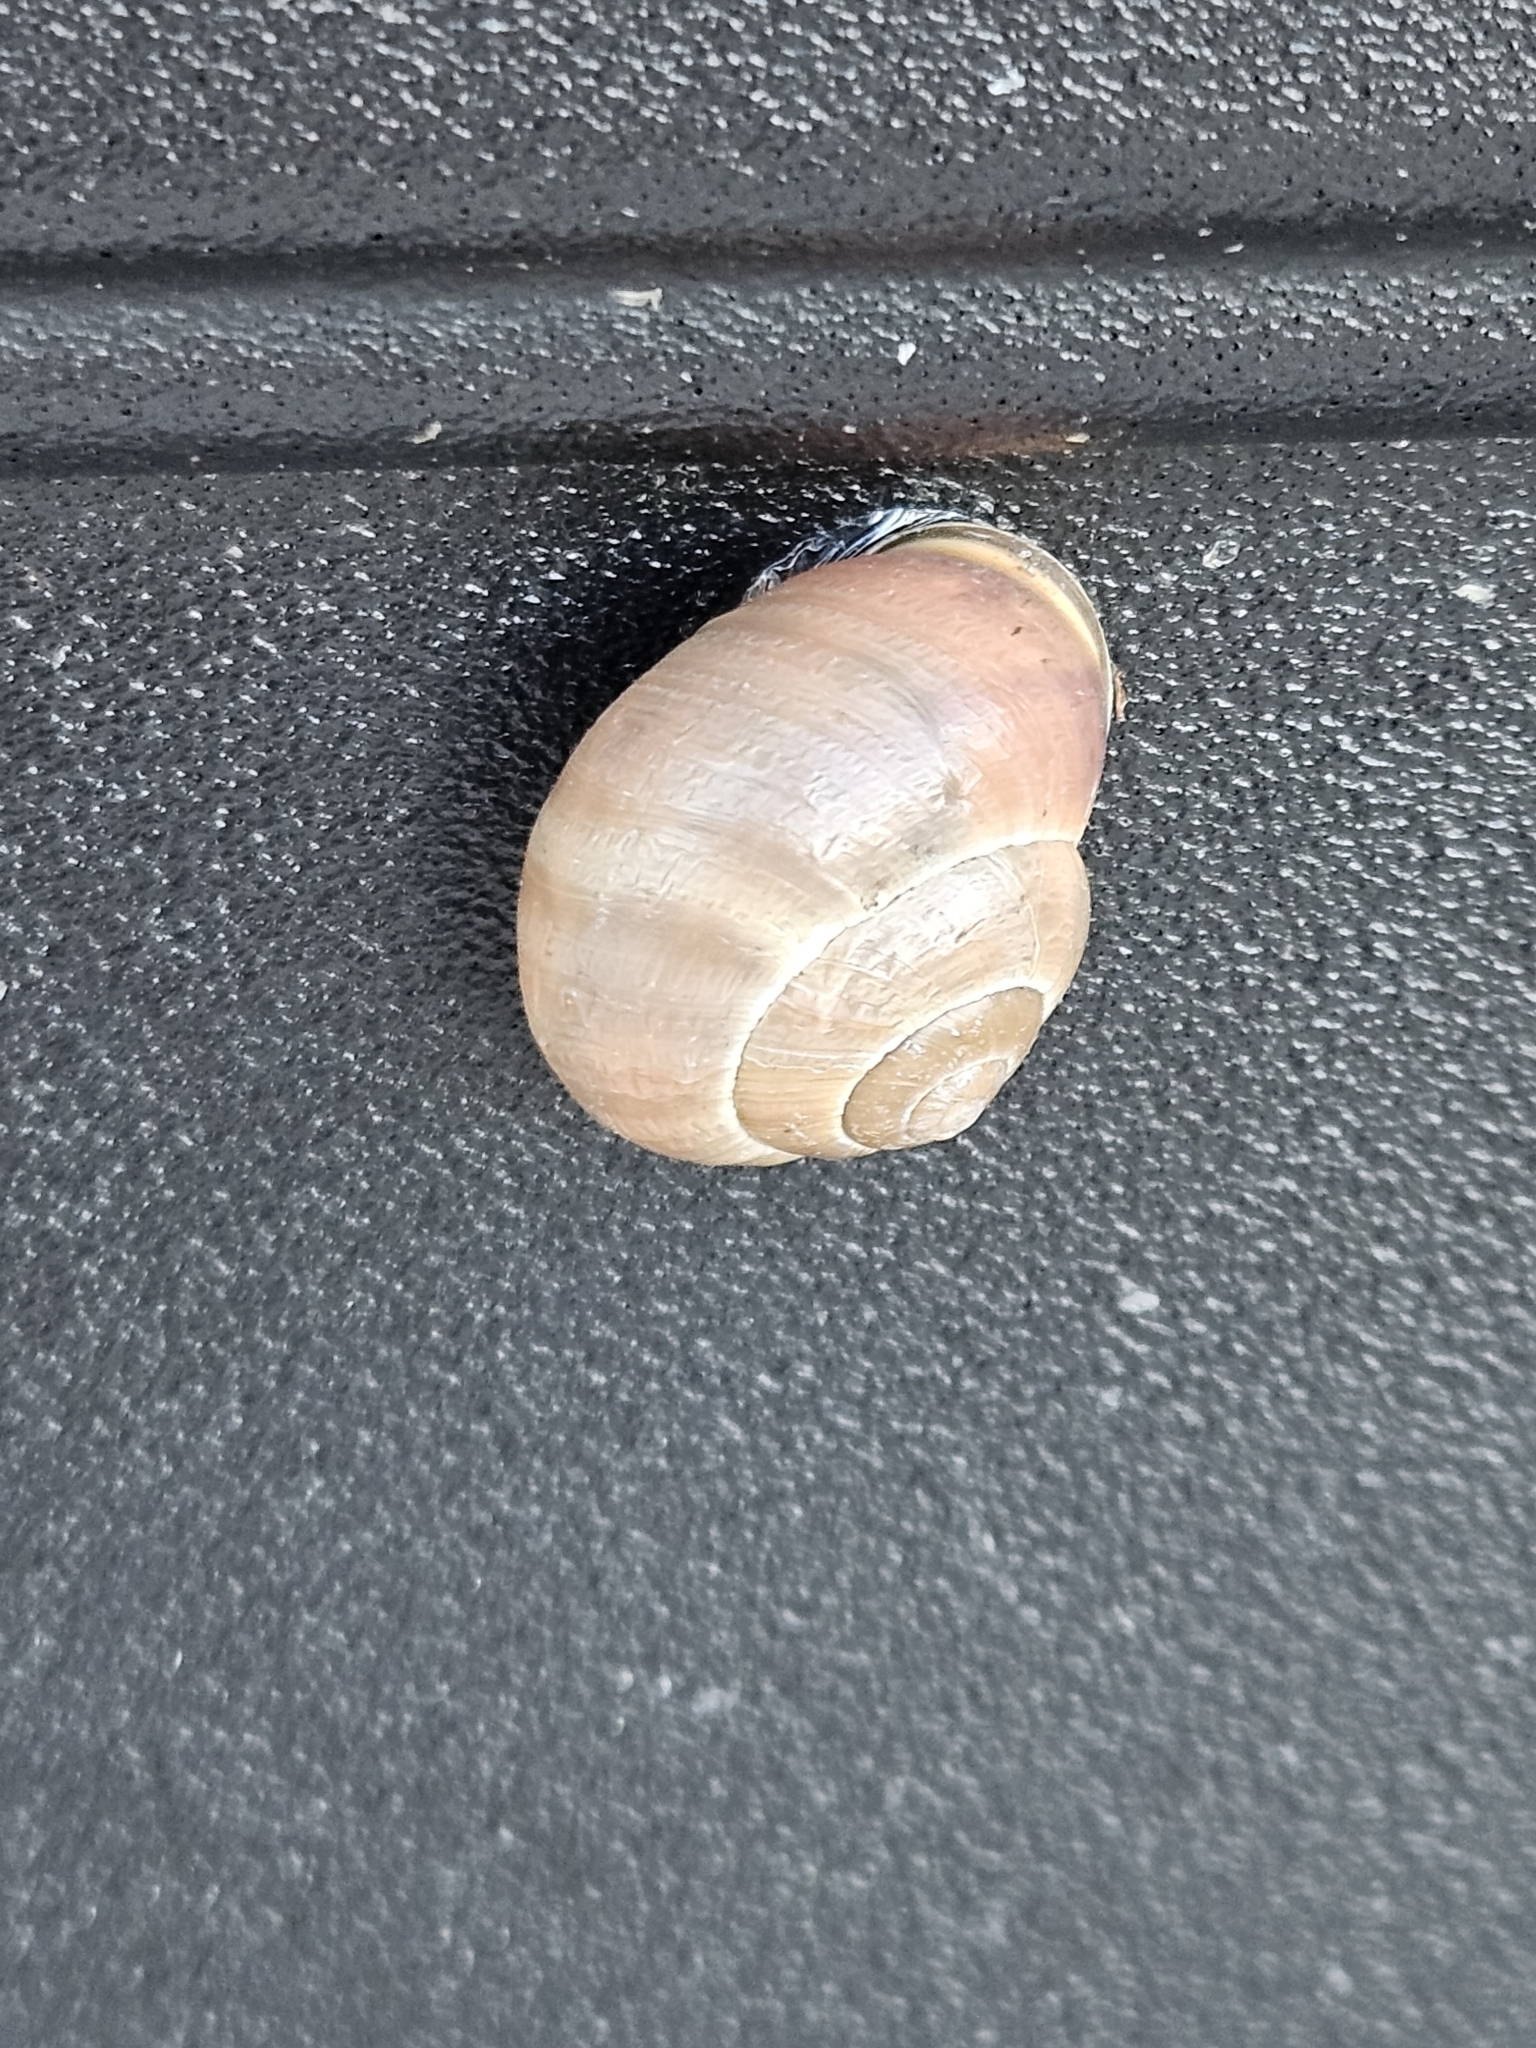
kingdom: Animalia
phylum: Mollusca
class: Gastropoda
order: Stylommatophora
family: Helicidae
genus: Cepaea
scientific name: Cepaea nemoralis
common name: Grovesnail
